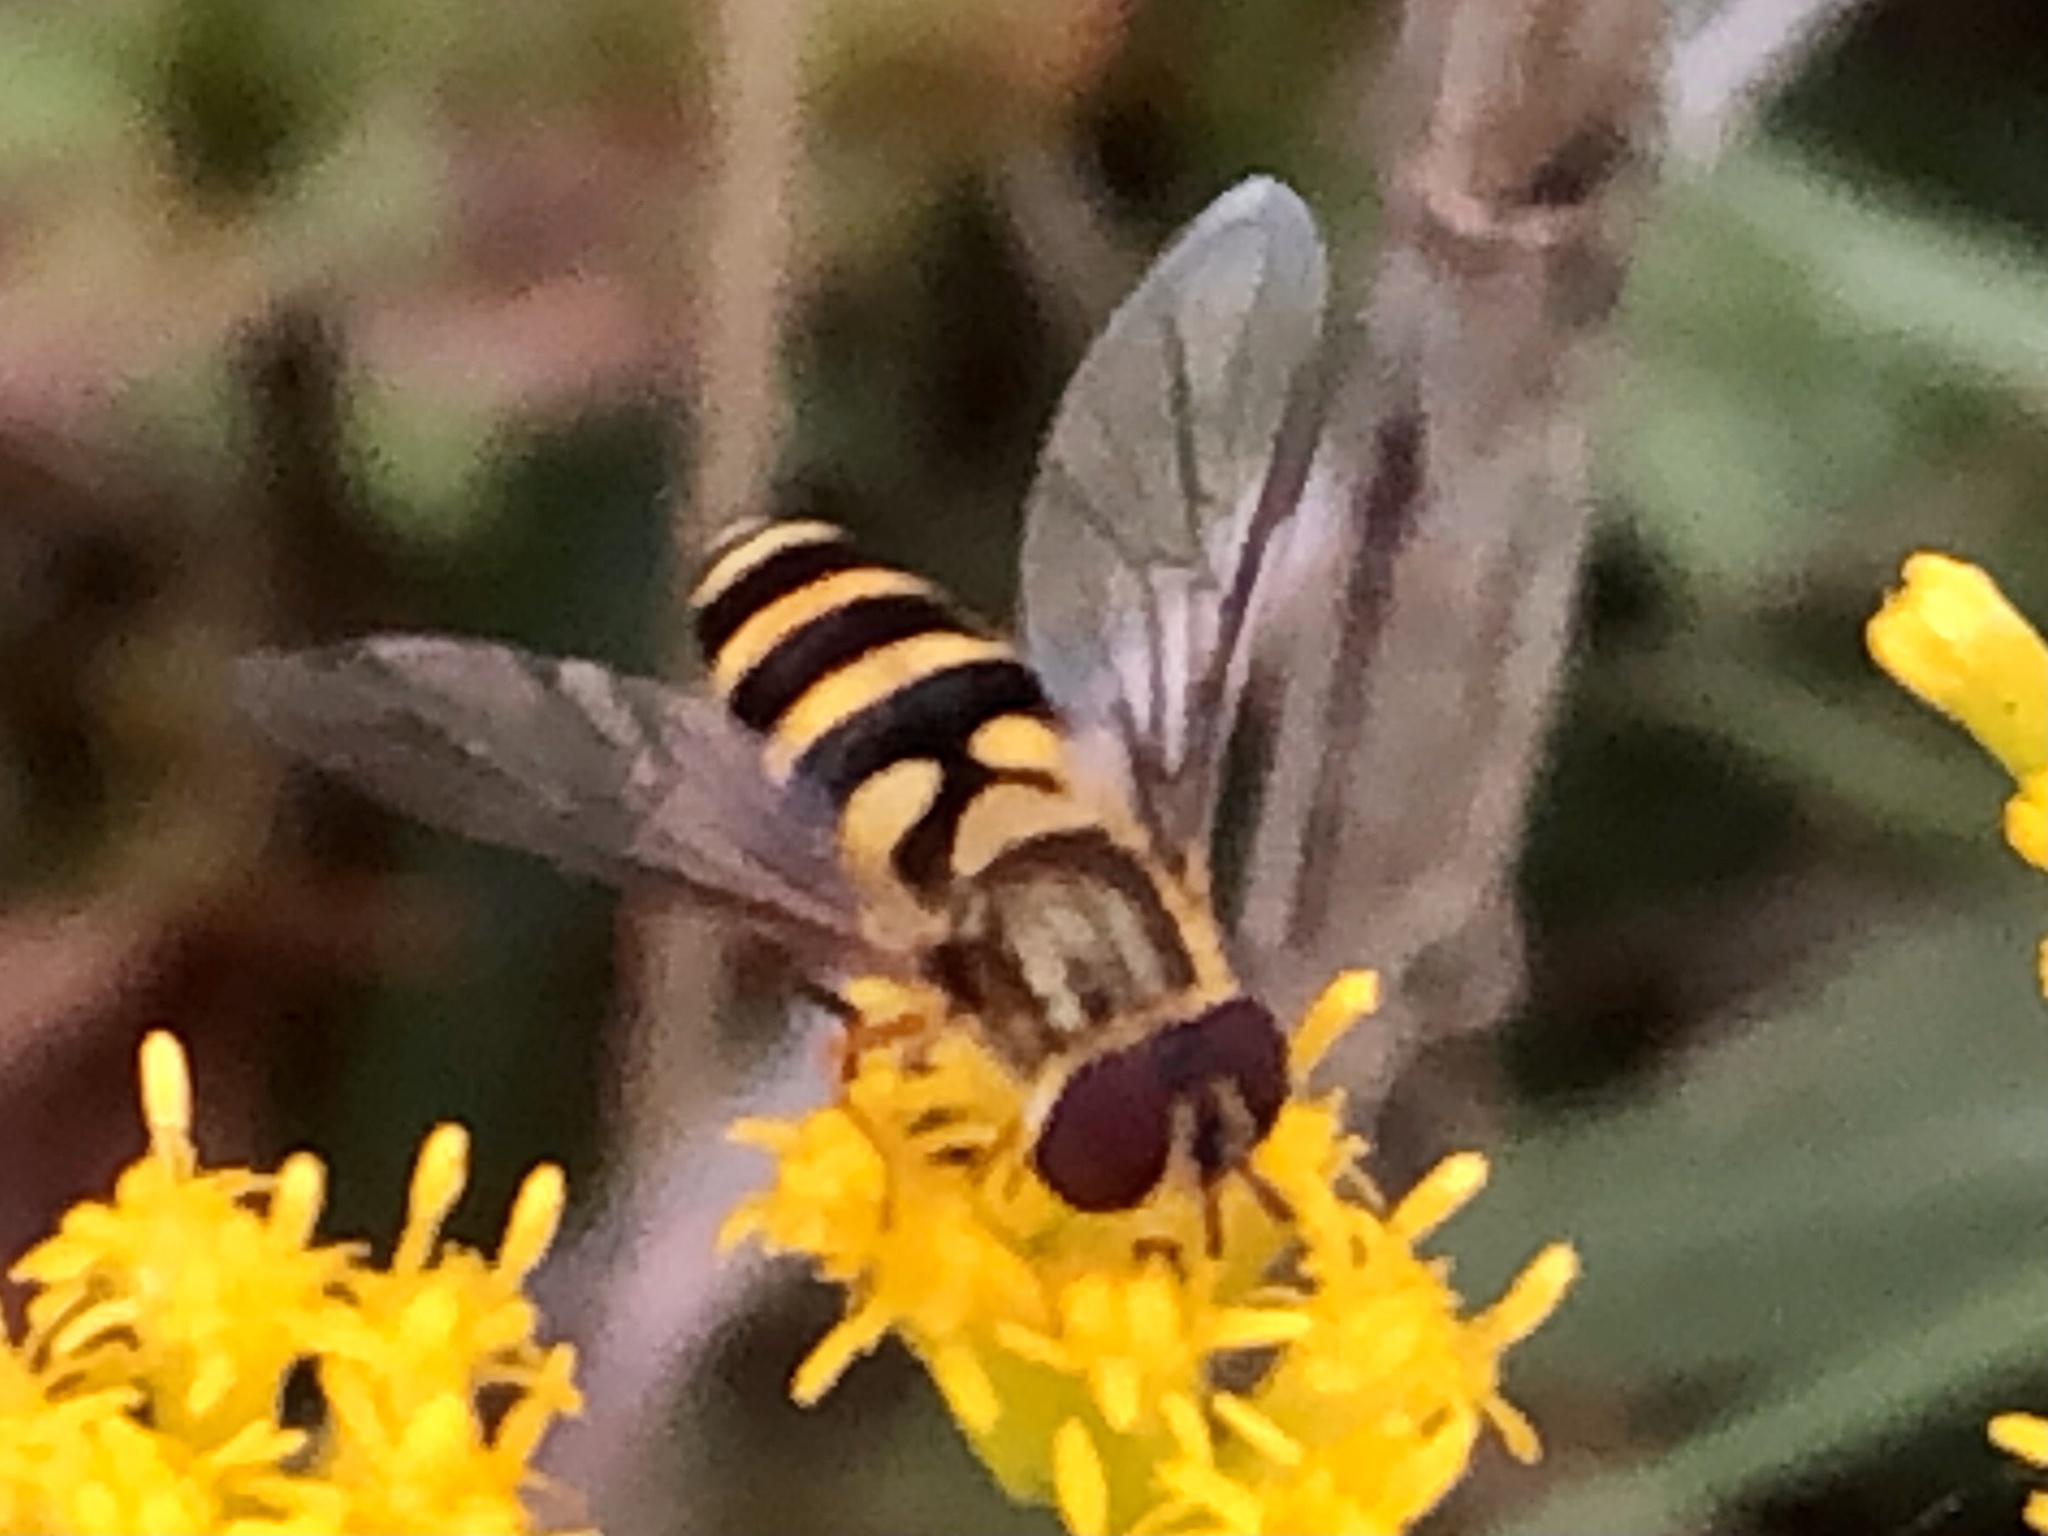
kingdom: Animalia
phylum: Arthropoda
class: Insecta
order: Diptera
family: Syrphidae
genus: Syrphus
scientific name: Syrphus
